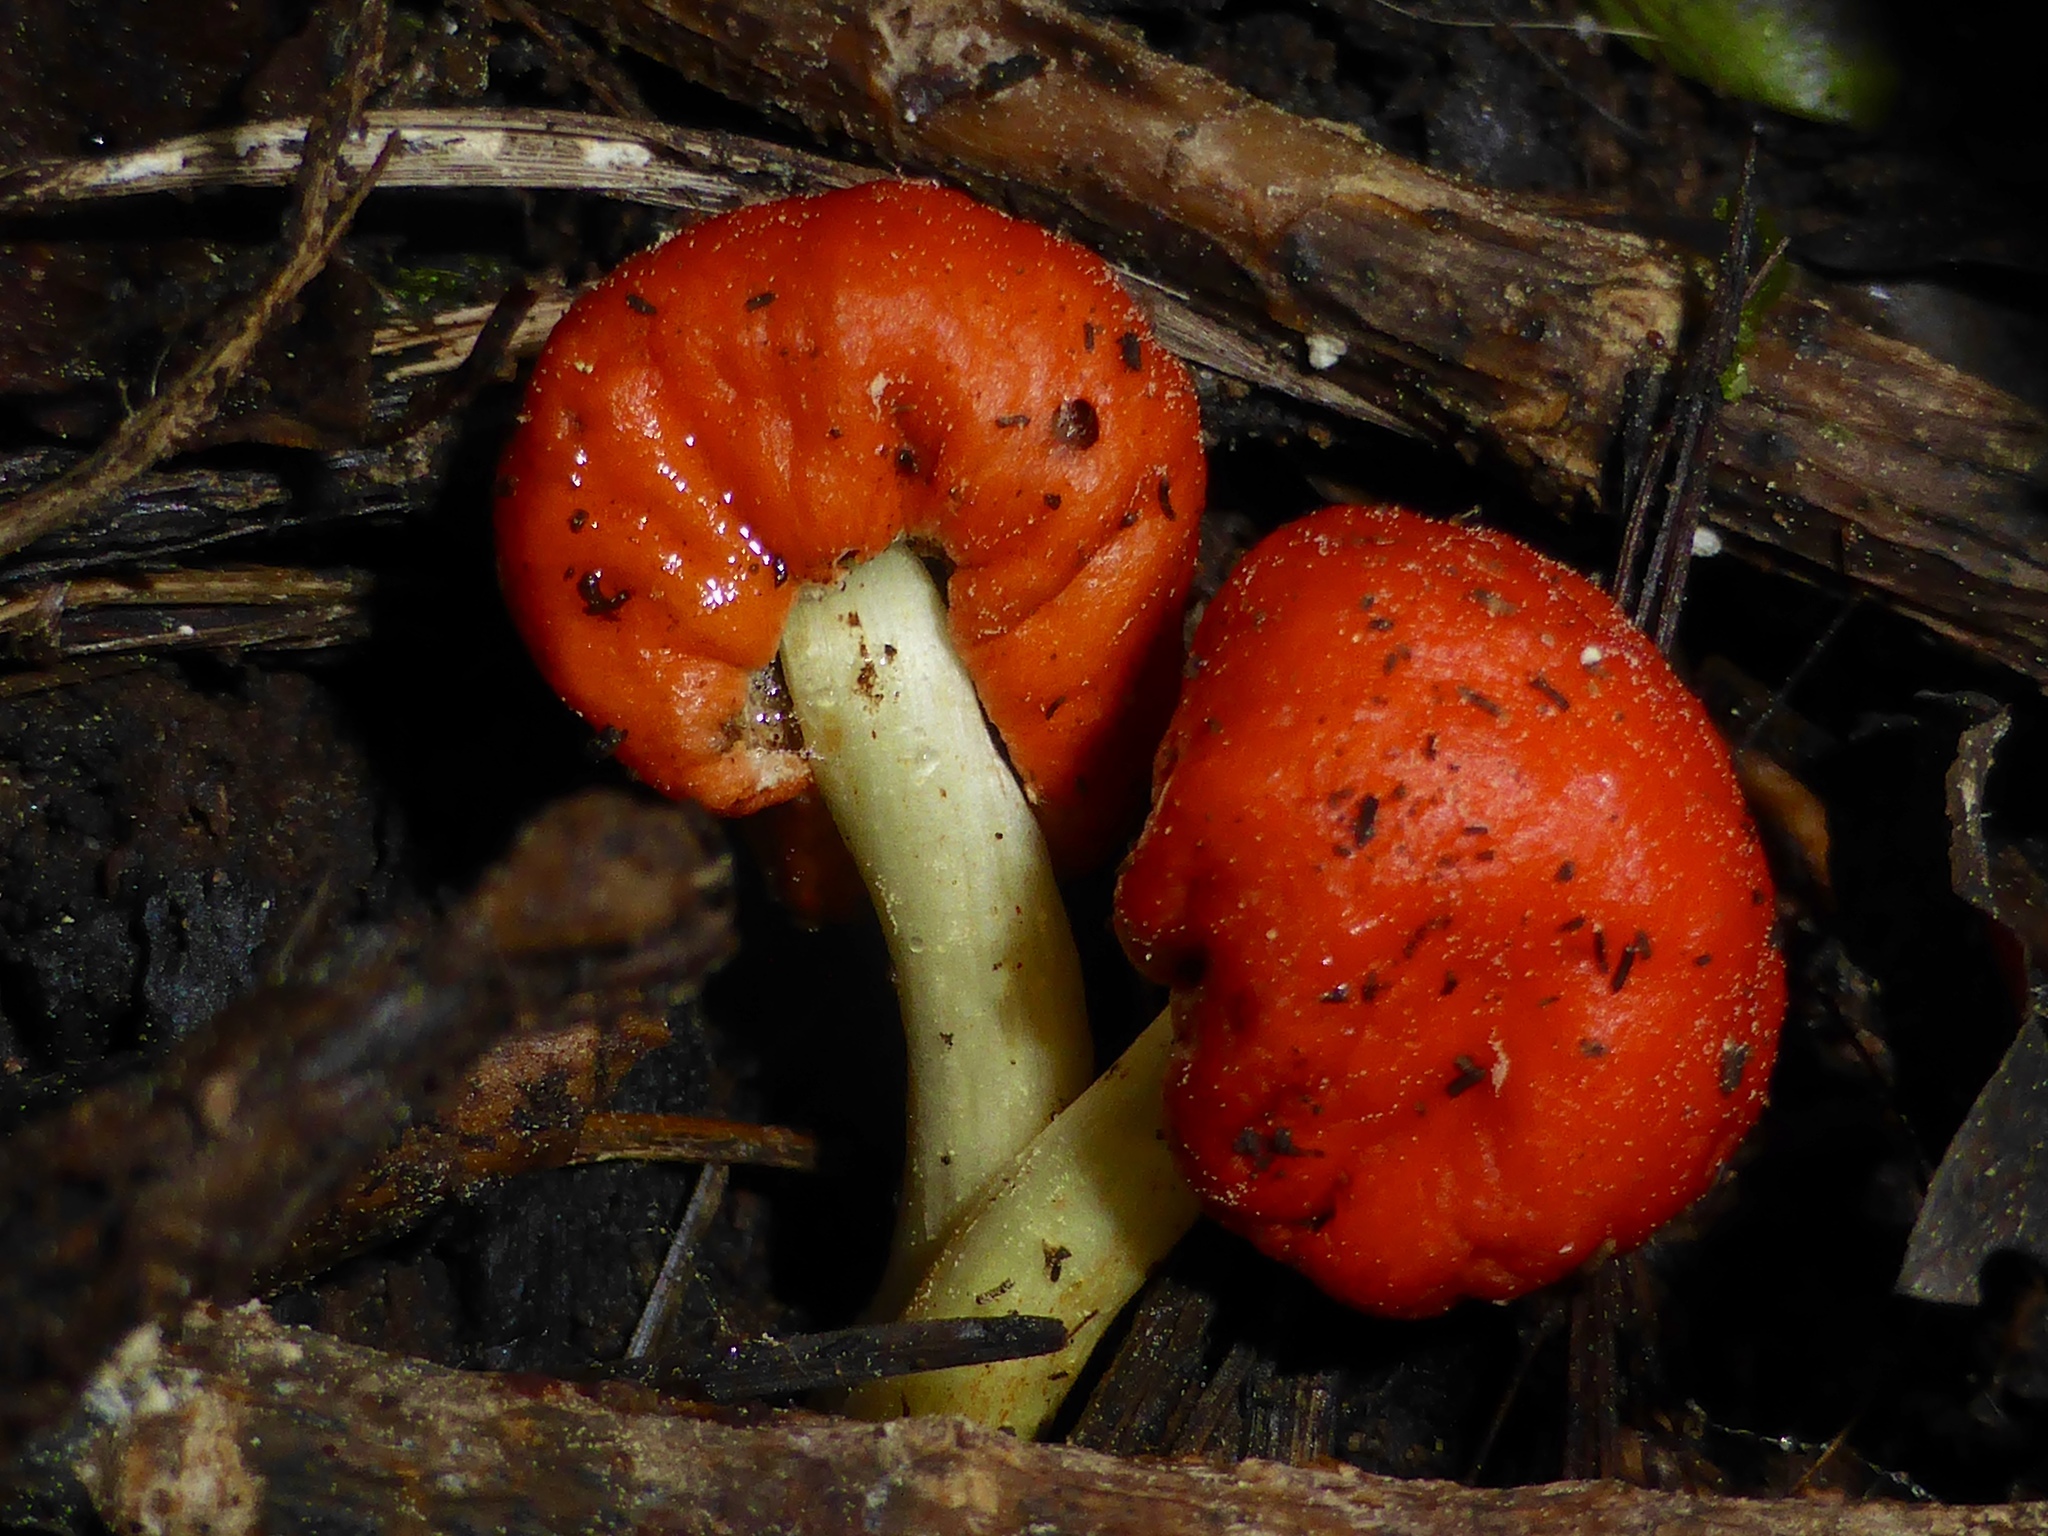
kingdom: Fungi
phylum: Basidiomycota
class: Agaricomycetes
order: Agaricales
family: Strophariaceae
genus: Leratiomyces
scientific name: Leratiomyces erythrocephalus
